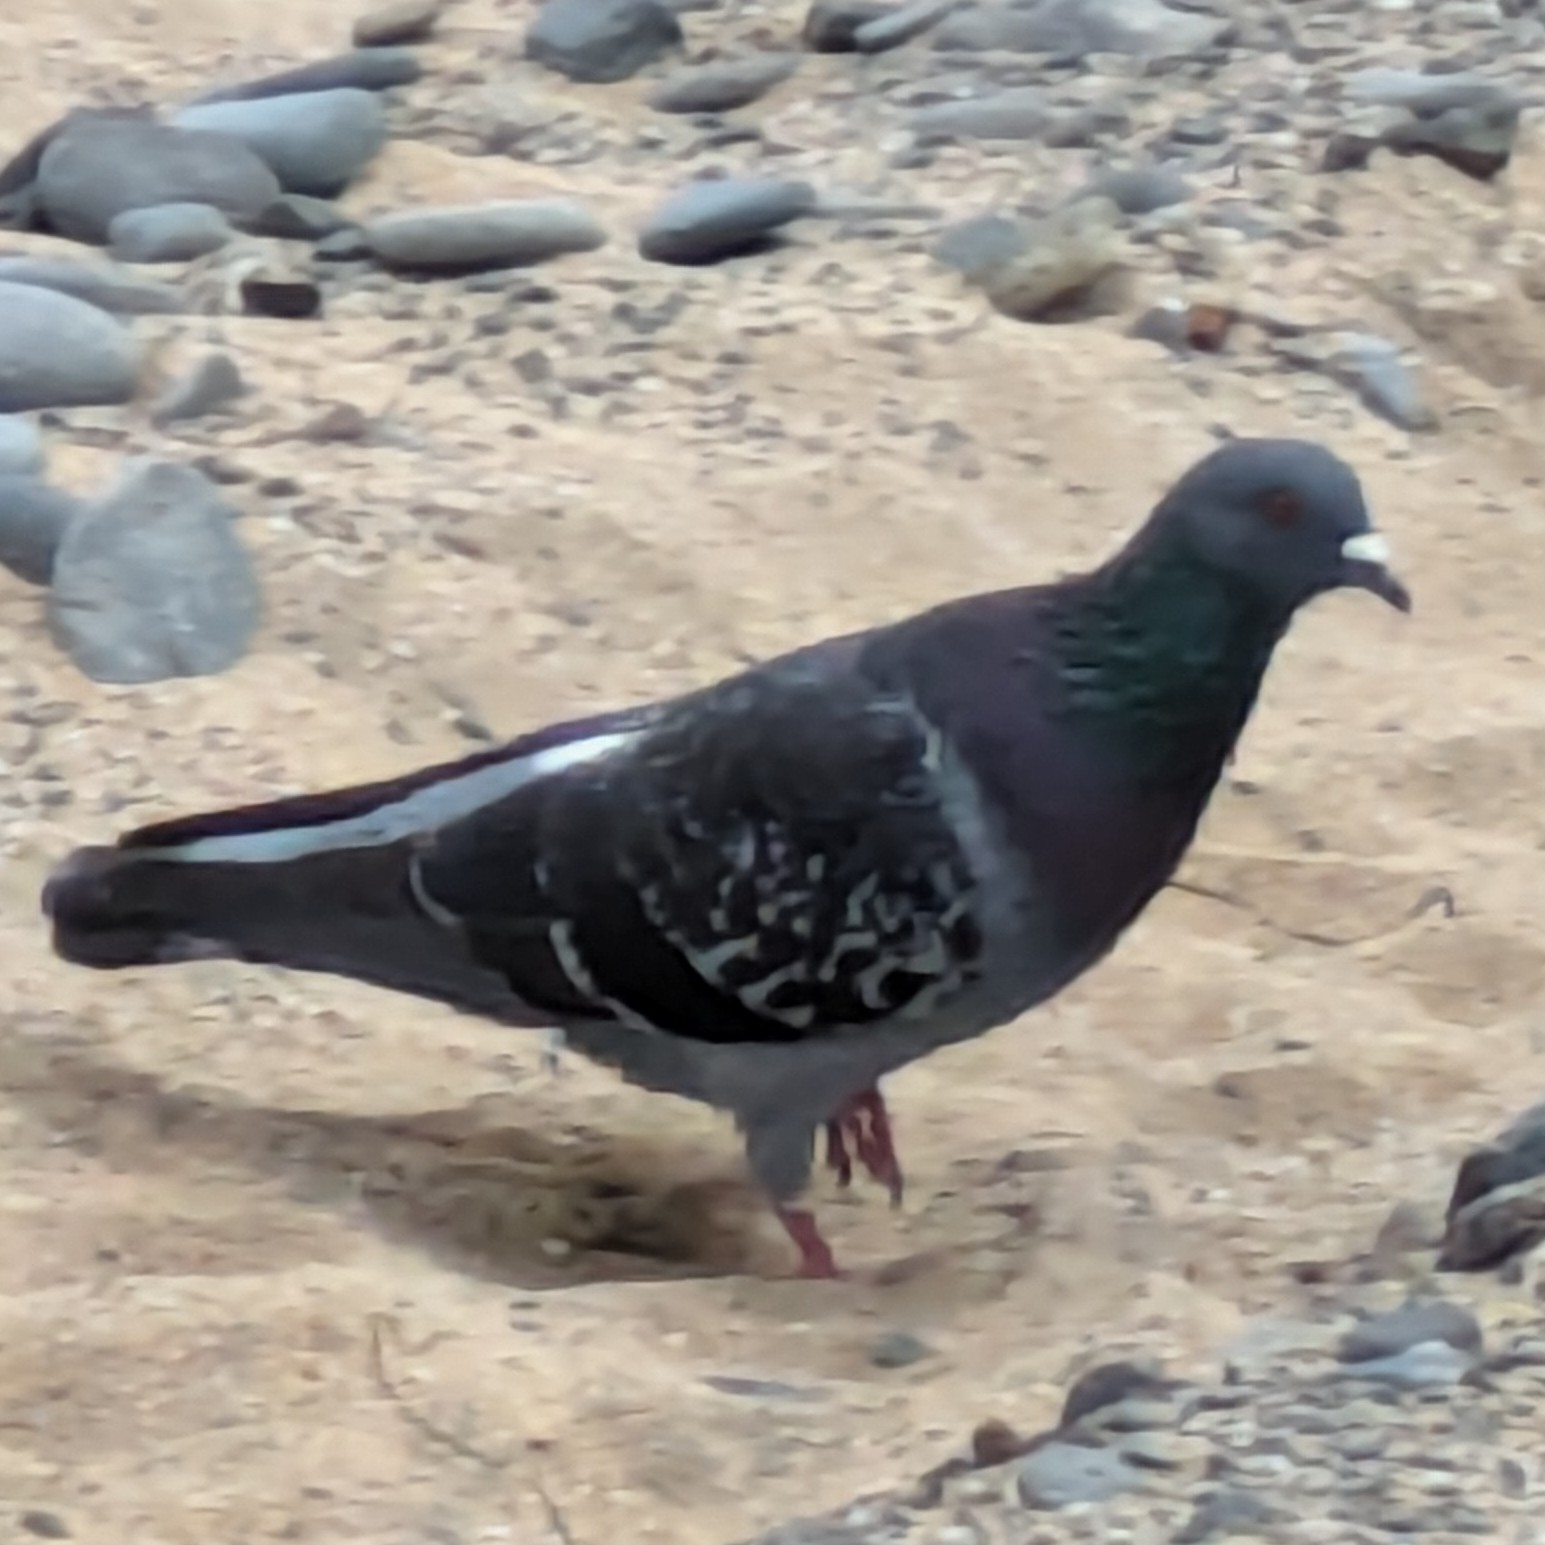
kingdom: Animalia
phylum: Chordata
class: Aves
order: Columbiformes
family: Columbidae
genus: Columba
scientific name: Columba livia
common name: Rock pigeon
